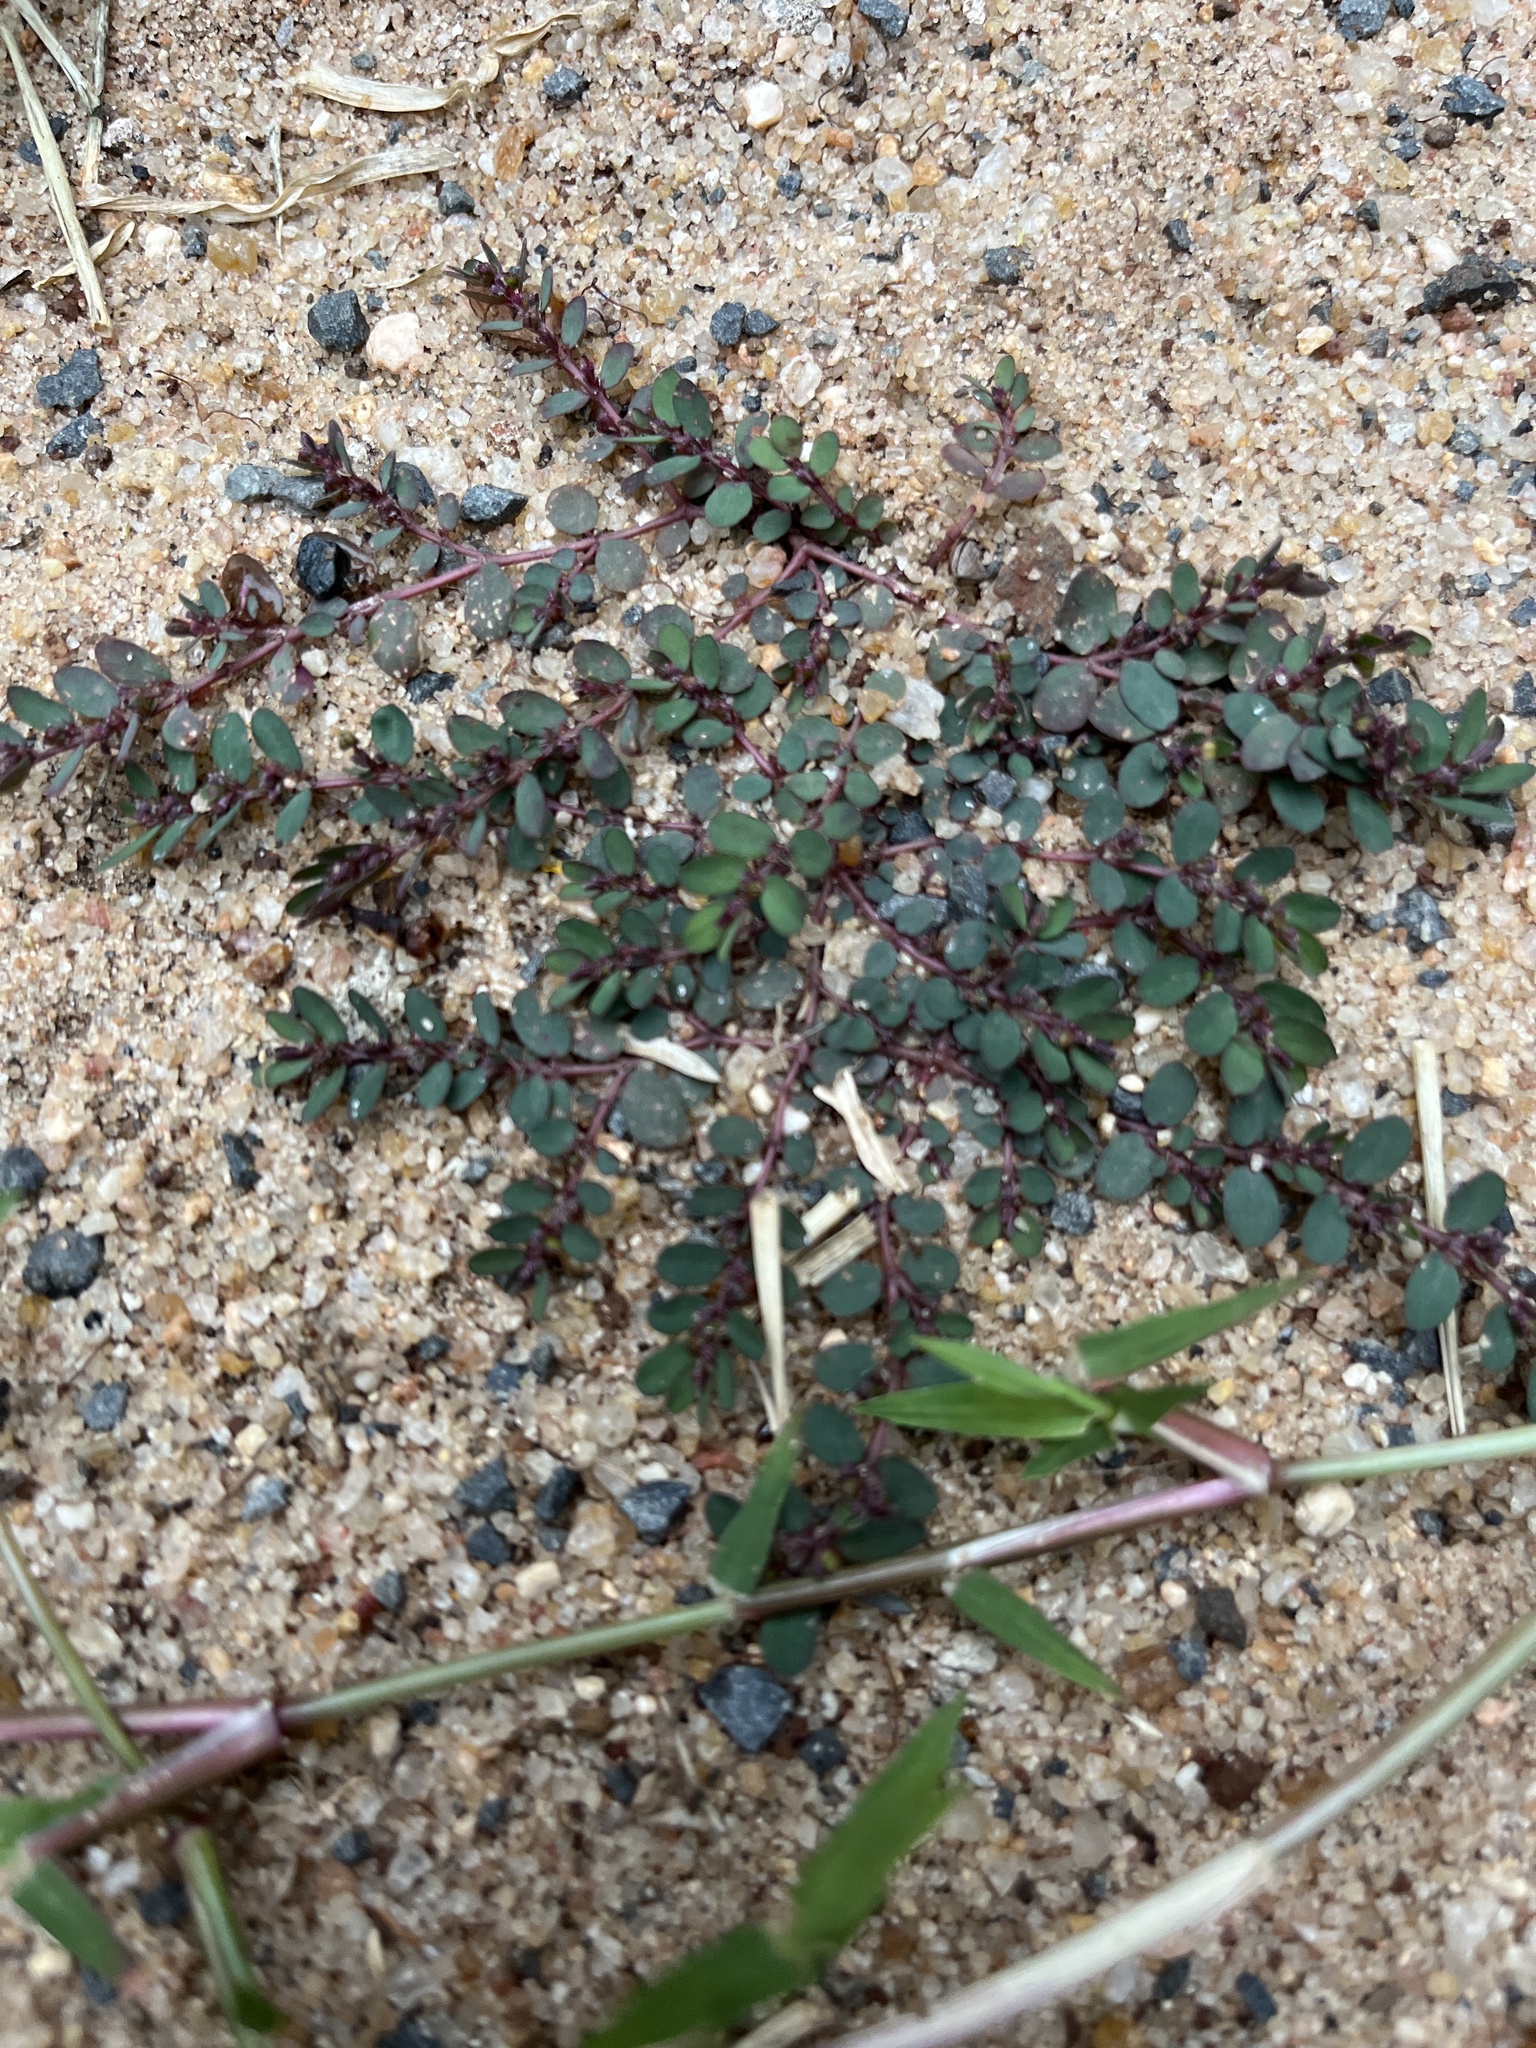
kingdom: Plantae
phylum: Tracheophyta
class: Magnoliopsida
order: Malpighiales
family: Euphorbiaceae
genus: Euphorbia
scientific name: Euphorbia prostrata
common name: Prostrate sandmat
